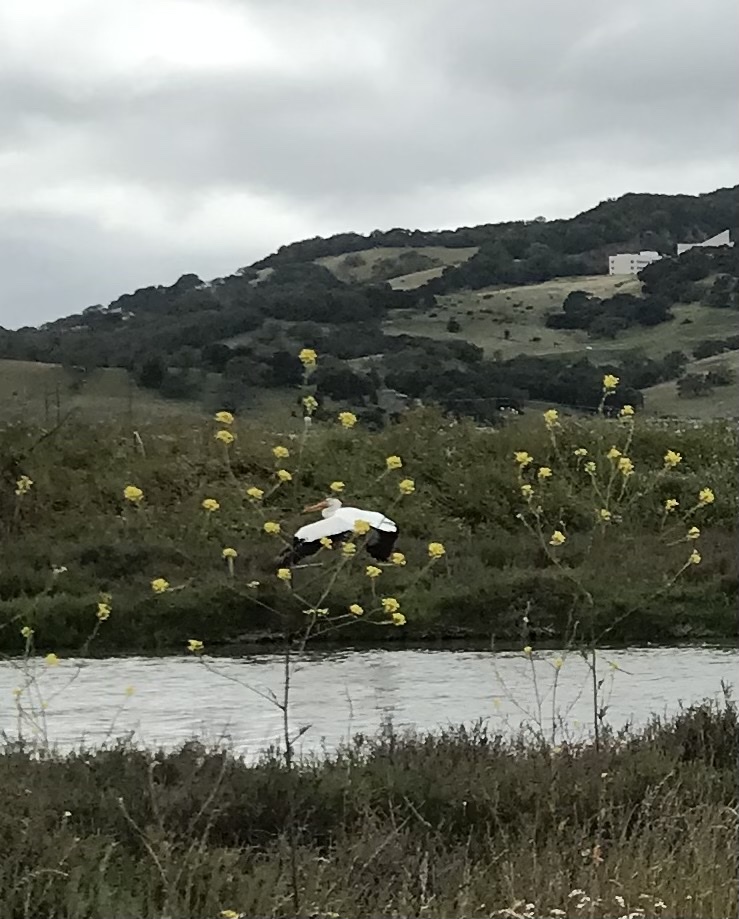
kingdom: Animalia
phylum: Chordata
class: Aves
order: Pelecaniformes
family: Pelecanidae
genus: Pelecanus
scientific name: Pelecanus erythrorhynchos
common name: American white pelican
